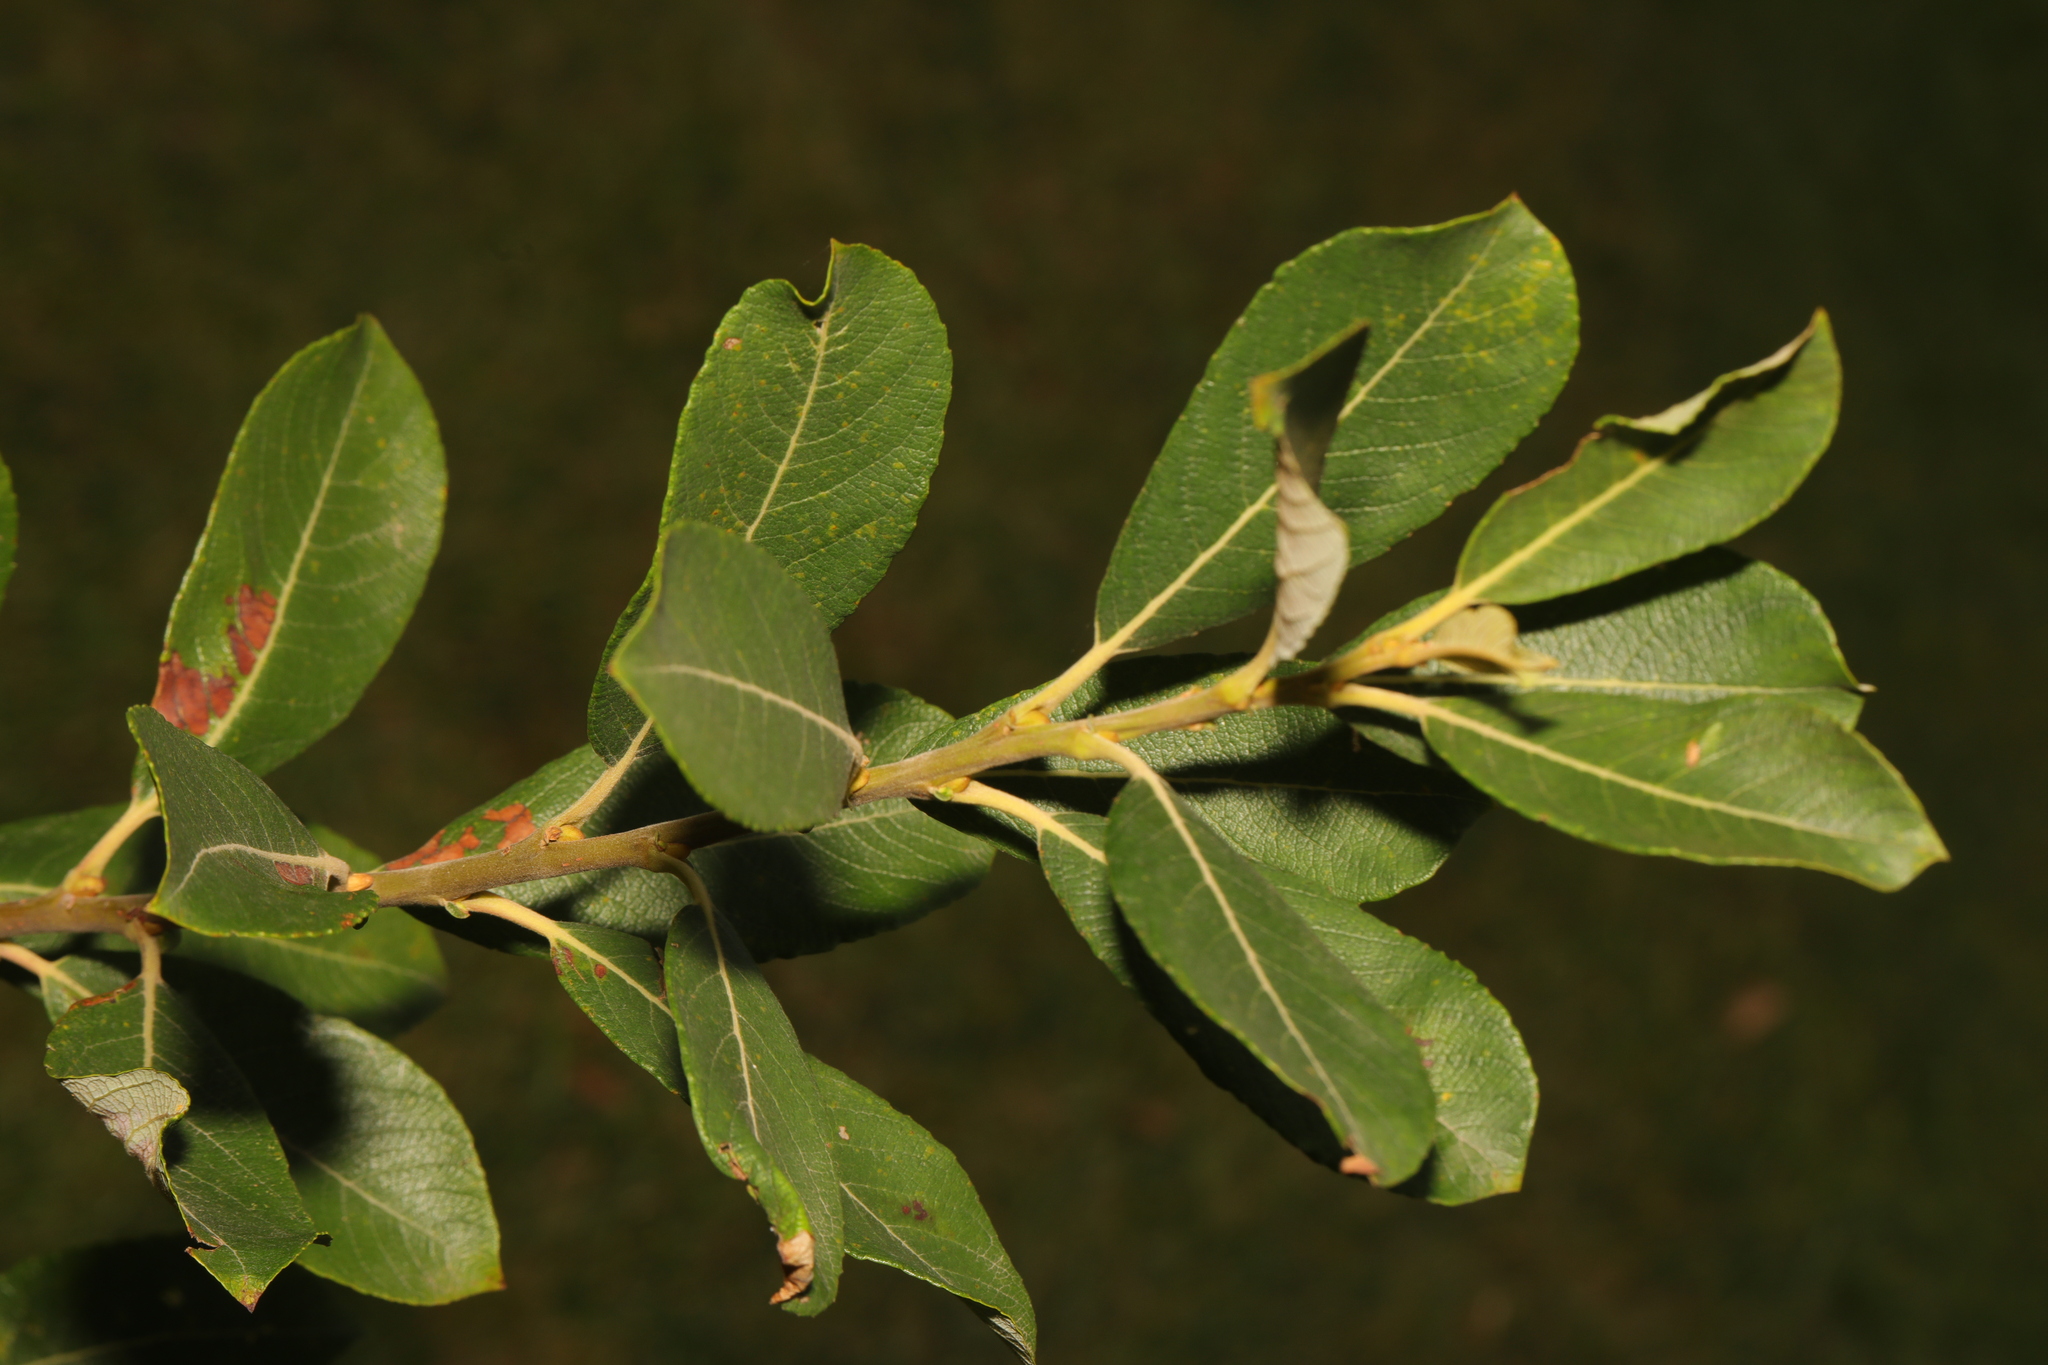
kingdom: Plantae
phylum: Tracheophyta
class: Magnoliopsida
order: Malpighiales
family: Salicaceae
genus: Salix
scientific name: Salix atrocinerea
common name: Rusty willow
